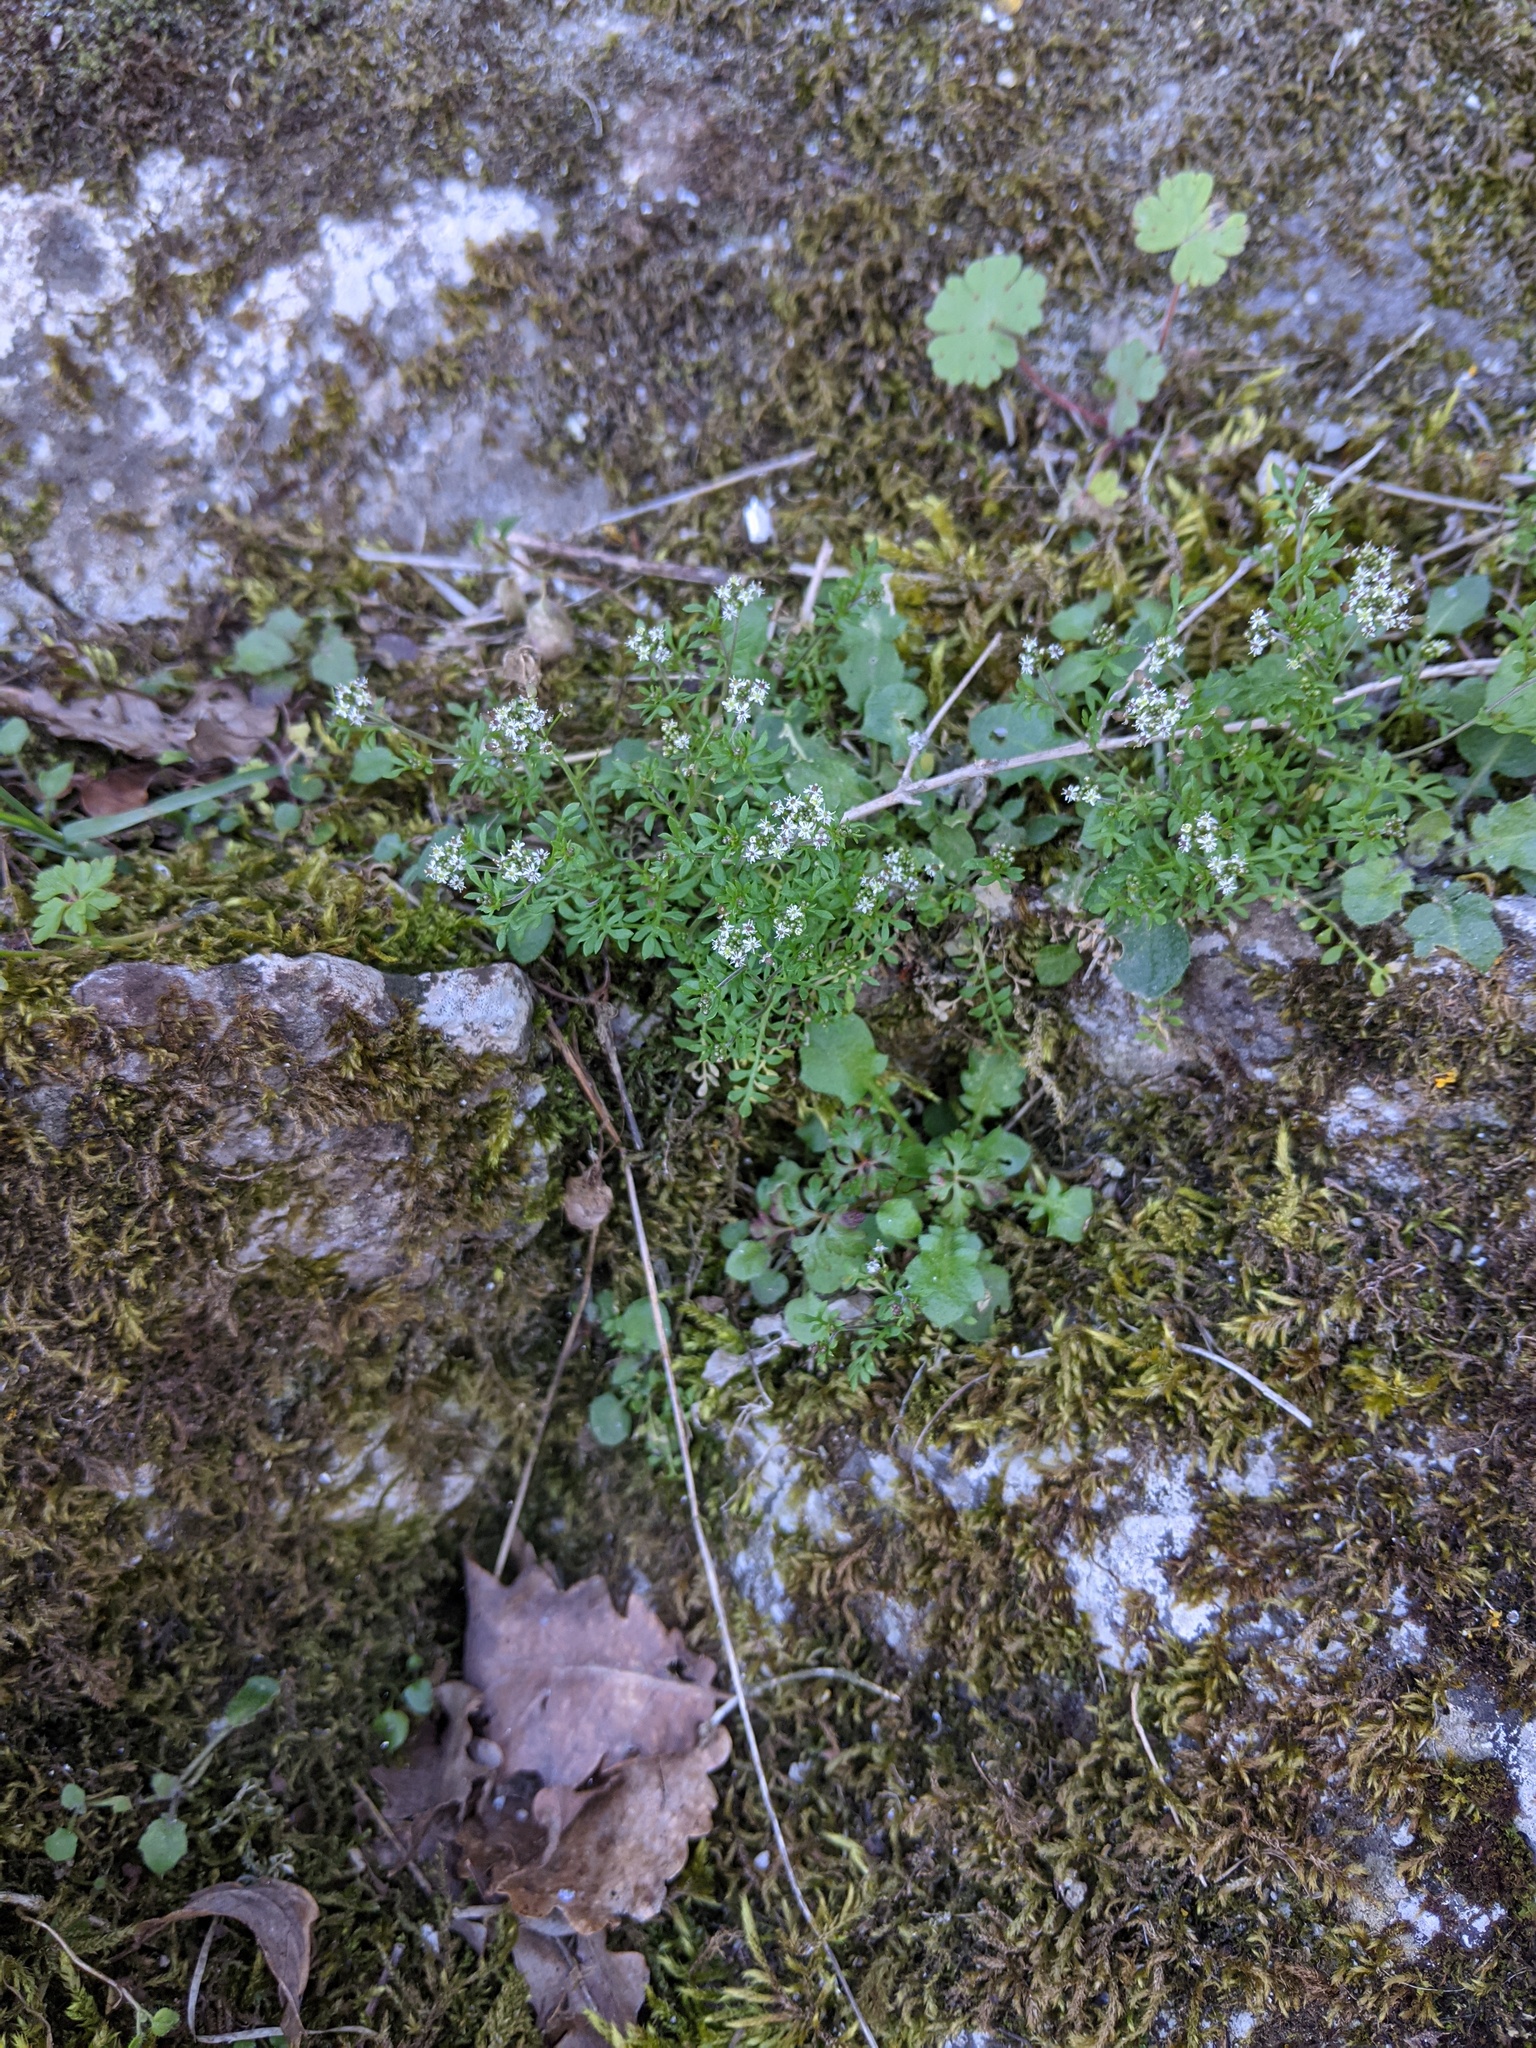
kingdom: Plantae
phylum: Tracheophyta
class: Magnoliopsida
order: Brassicales
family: Brassicaceae
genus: Hornungia
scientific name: Hornungia petraea
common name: Hutchinsia
